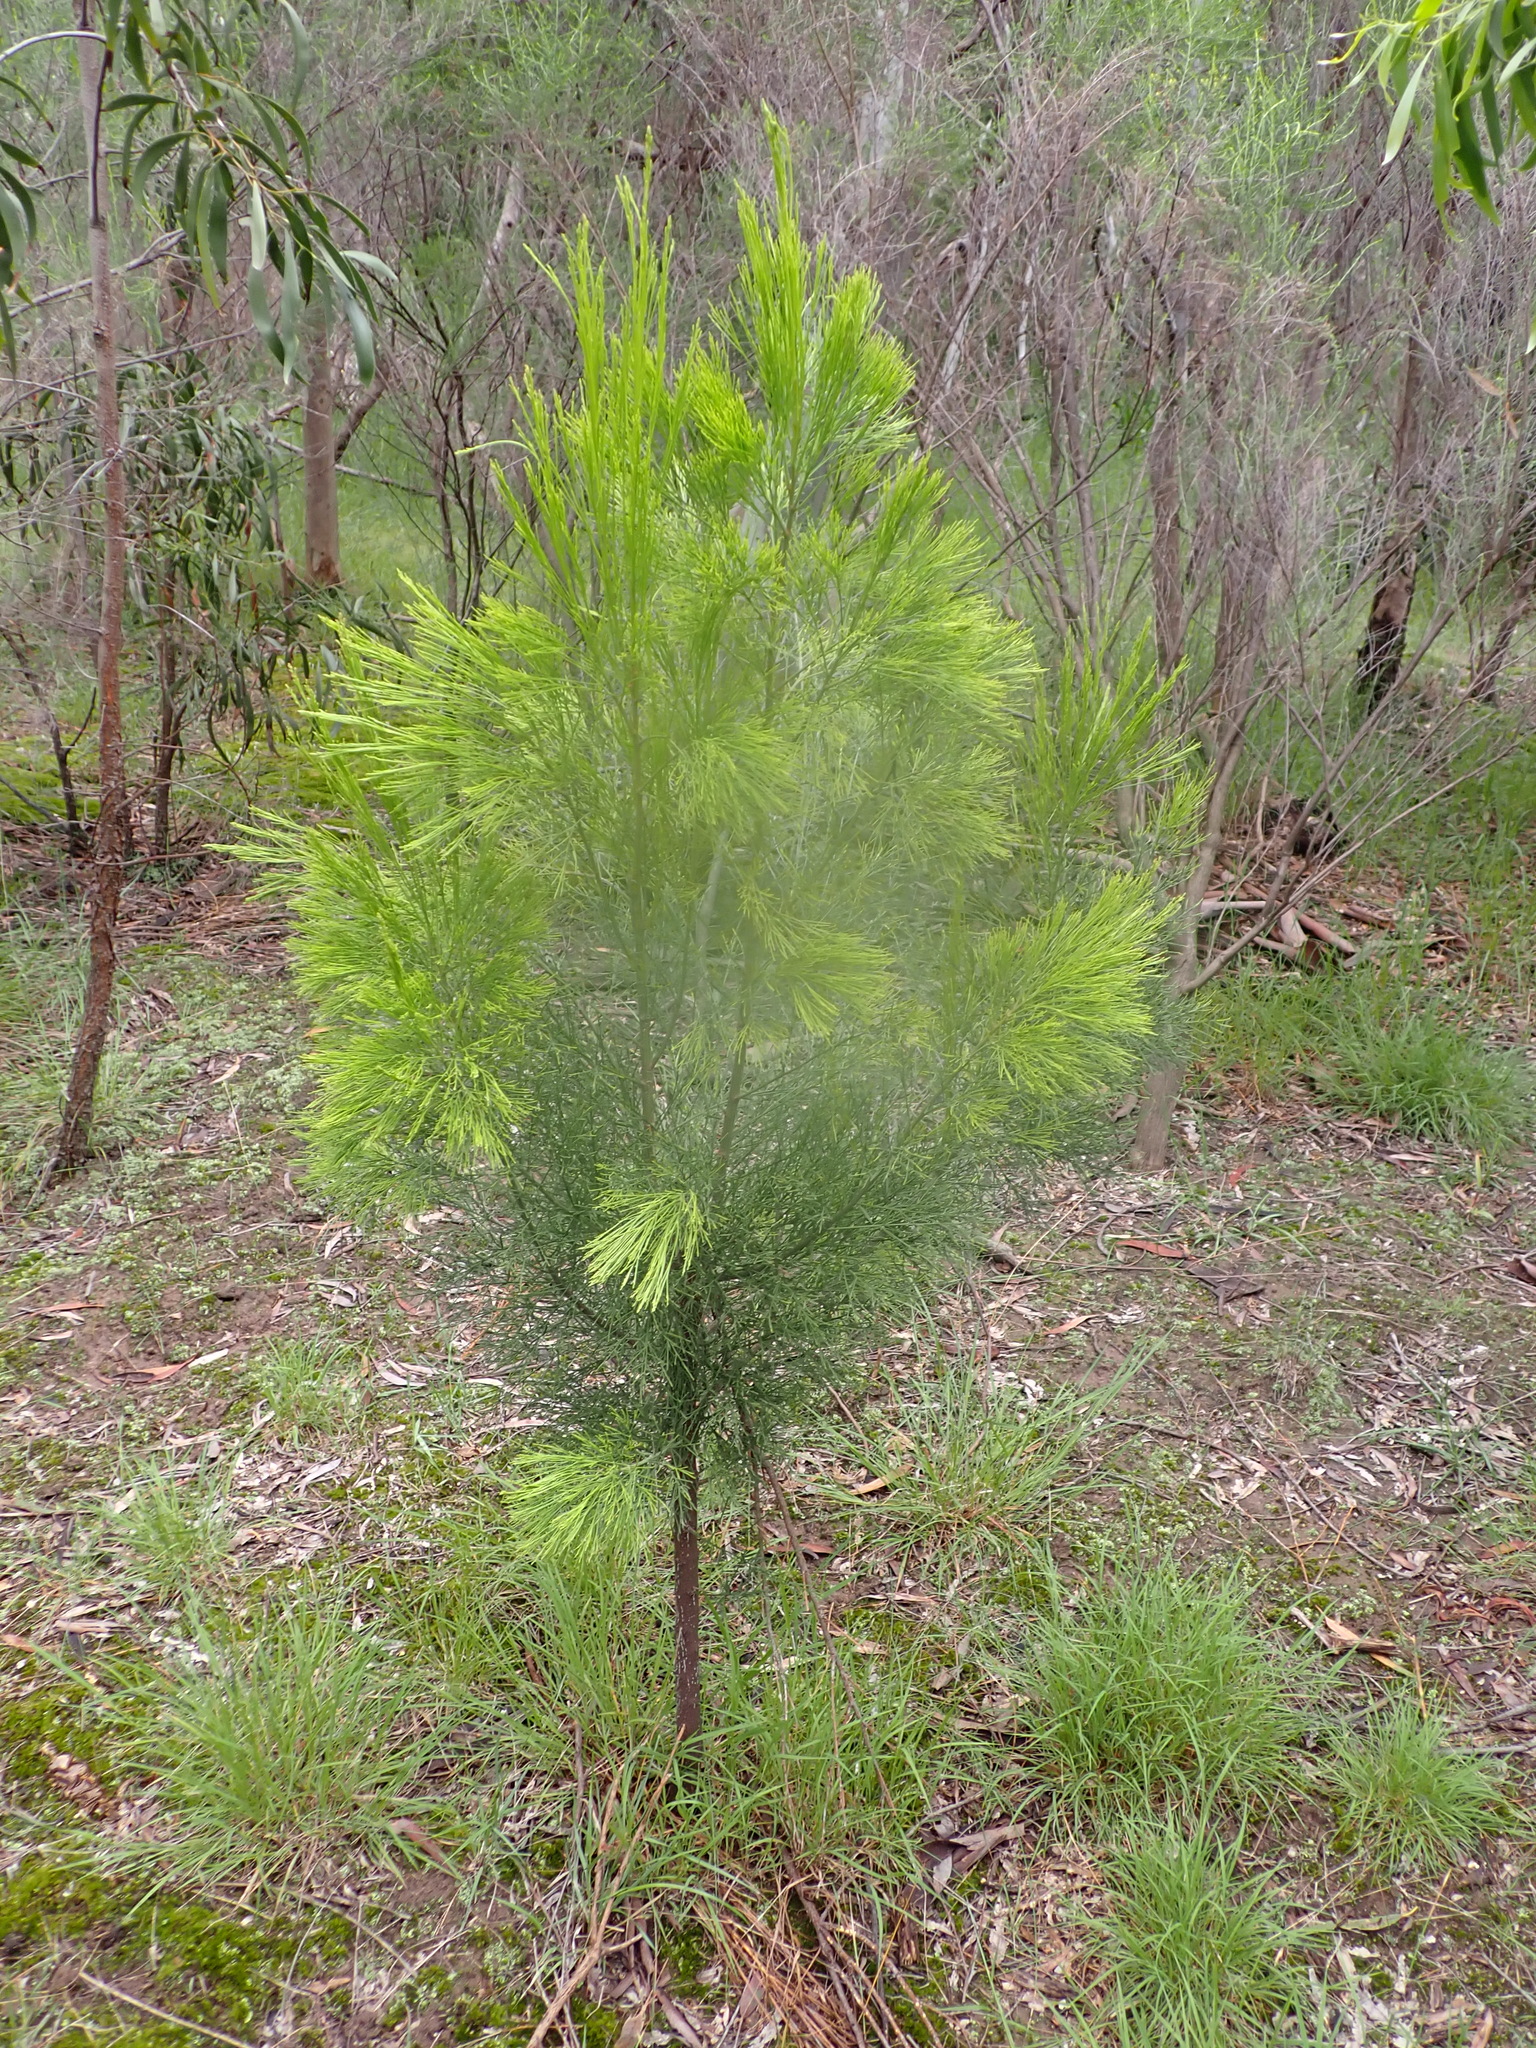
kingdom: Plantae
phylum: Tracheophyta
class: Magnoliopsida
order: Santalales
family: Santalaceae
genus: Exocarpos
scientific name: Exocarpos cupressiformis
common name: Cherry ballart
